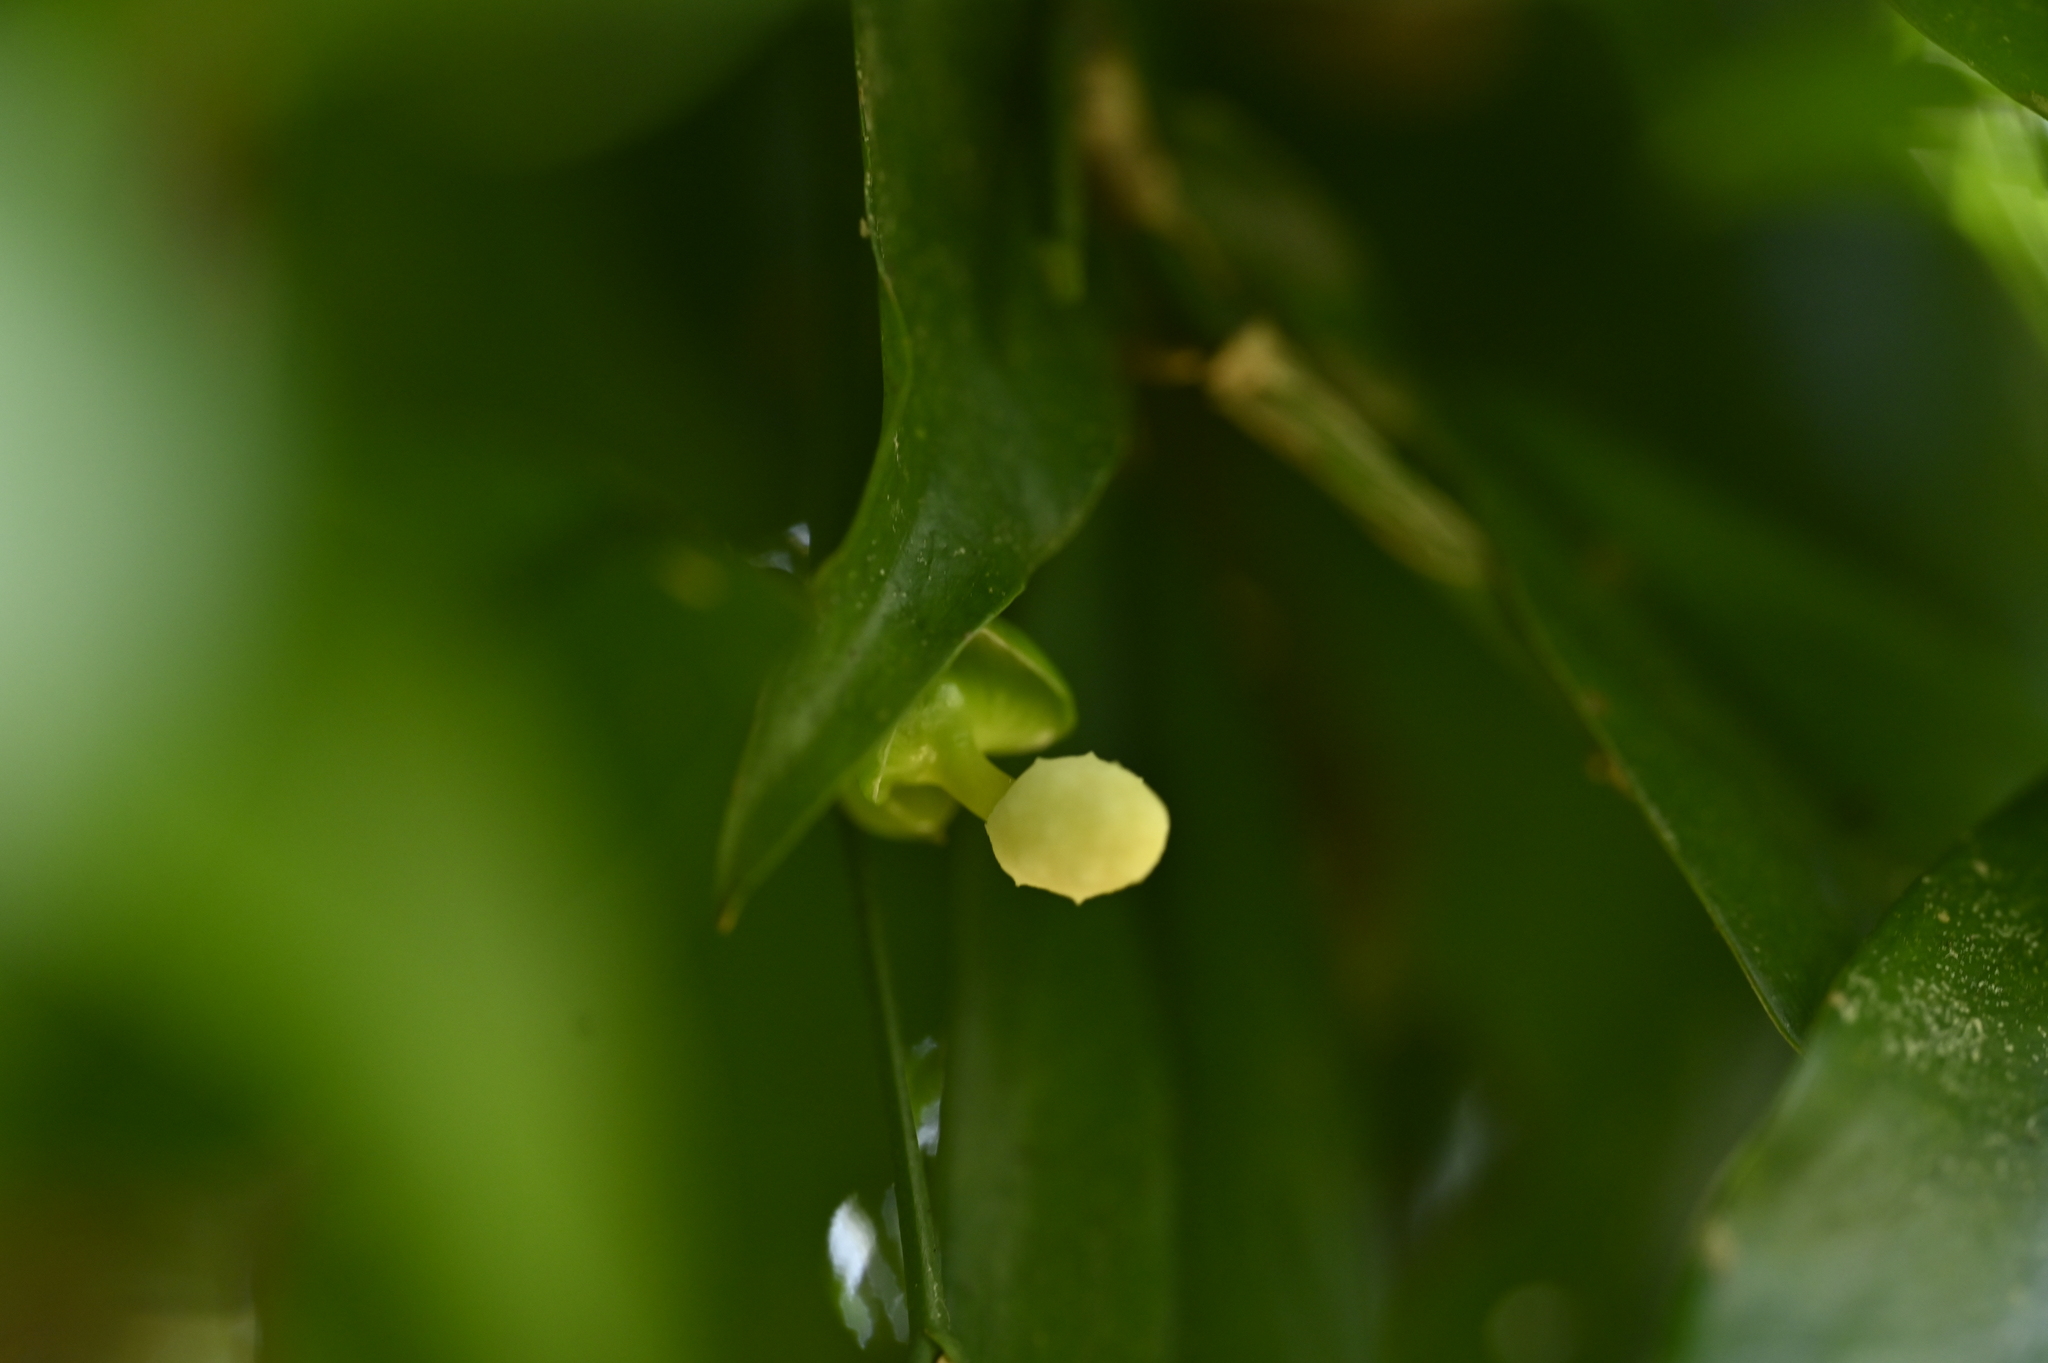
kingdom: Plantae
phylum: Tracheophyta
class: Liliopsida
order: Alismatales
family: Araceae
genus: Pothos
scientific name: Pothos chinensis
